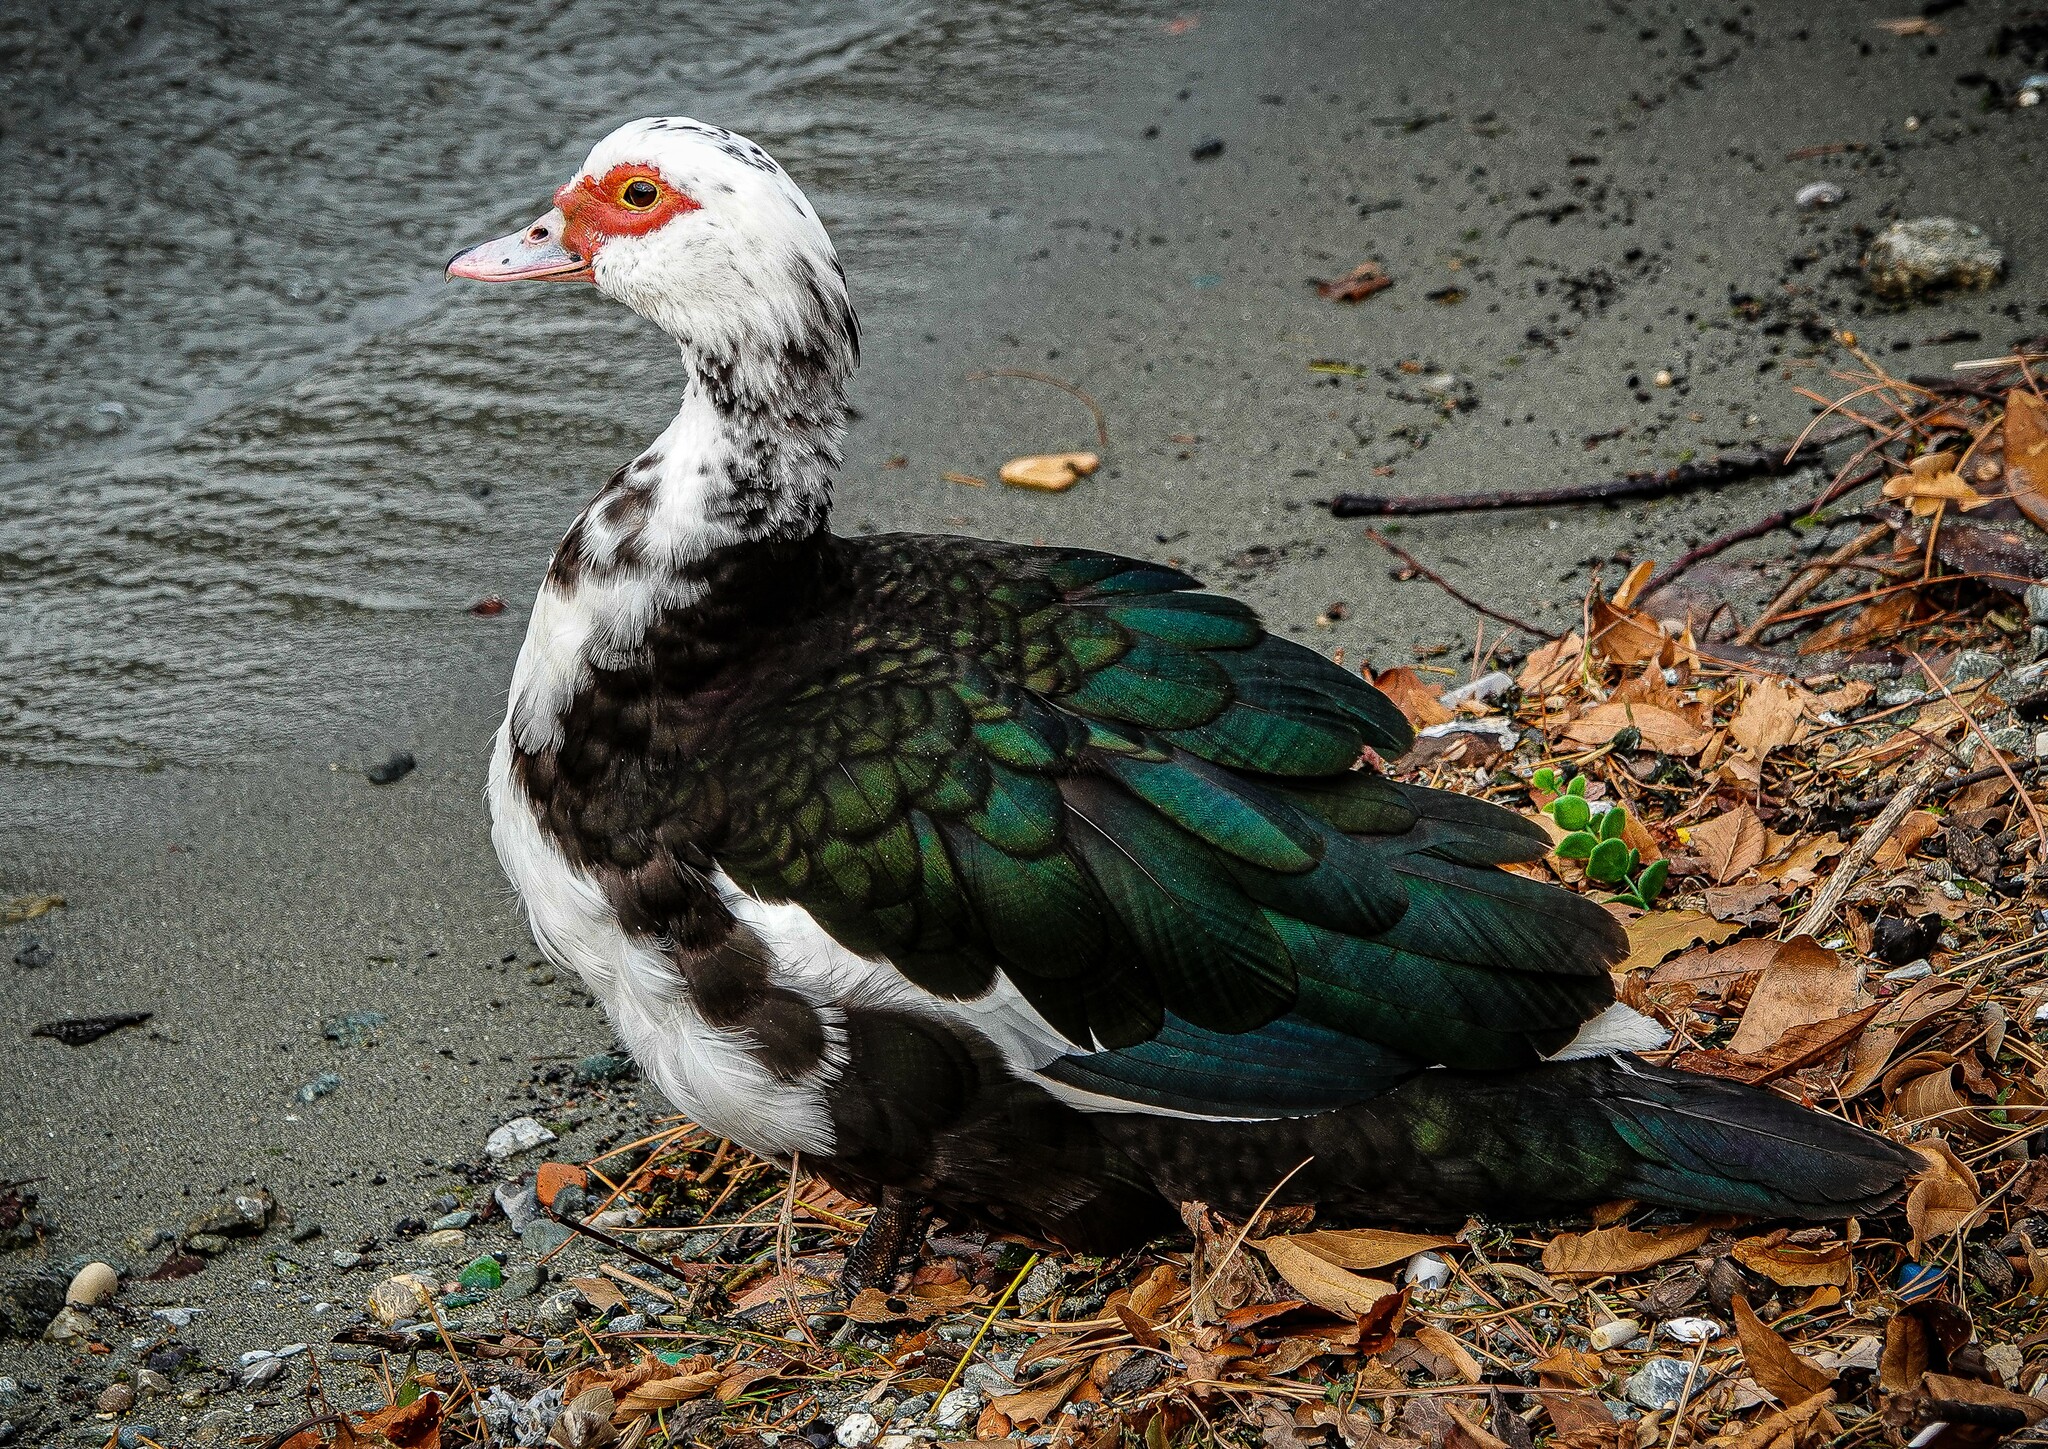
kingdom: Animalia
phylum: Chordata
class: Aves
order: Anseriformes
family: Anatidae
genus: Cairina
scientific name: Cairina moschata
